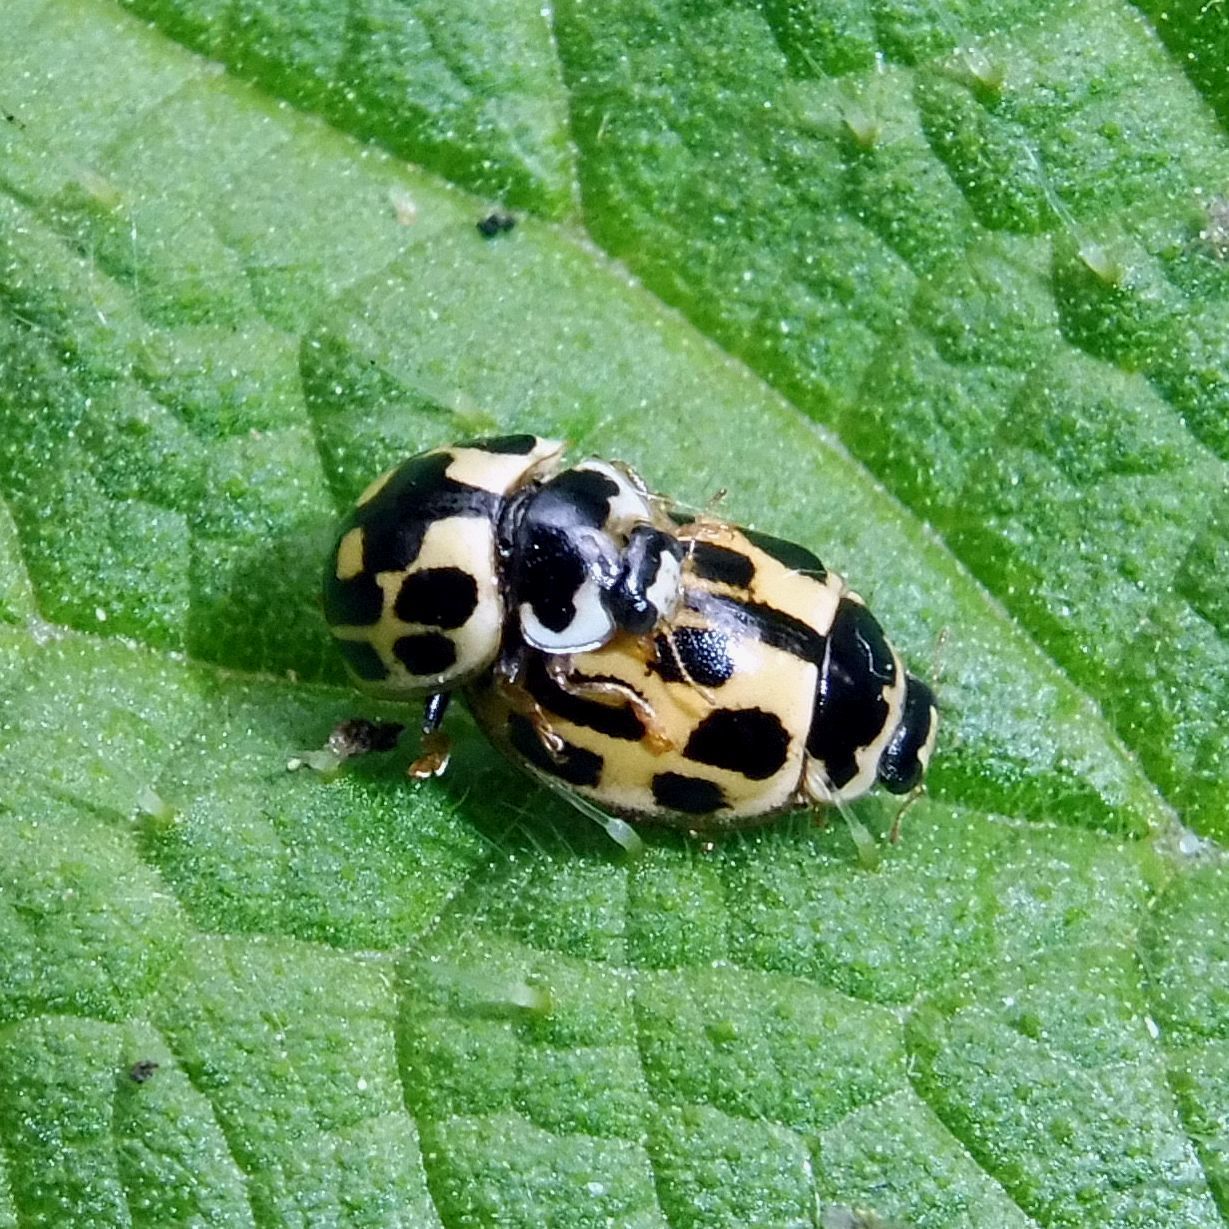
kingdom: Animalia
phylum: Arthropoda
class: Insecta
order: Coleoptera
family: Coccinellidae
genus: Propylaea
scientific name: Propylaea quatuordecimpunctata
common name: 14-spotted ladybird beetle
